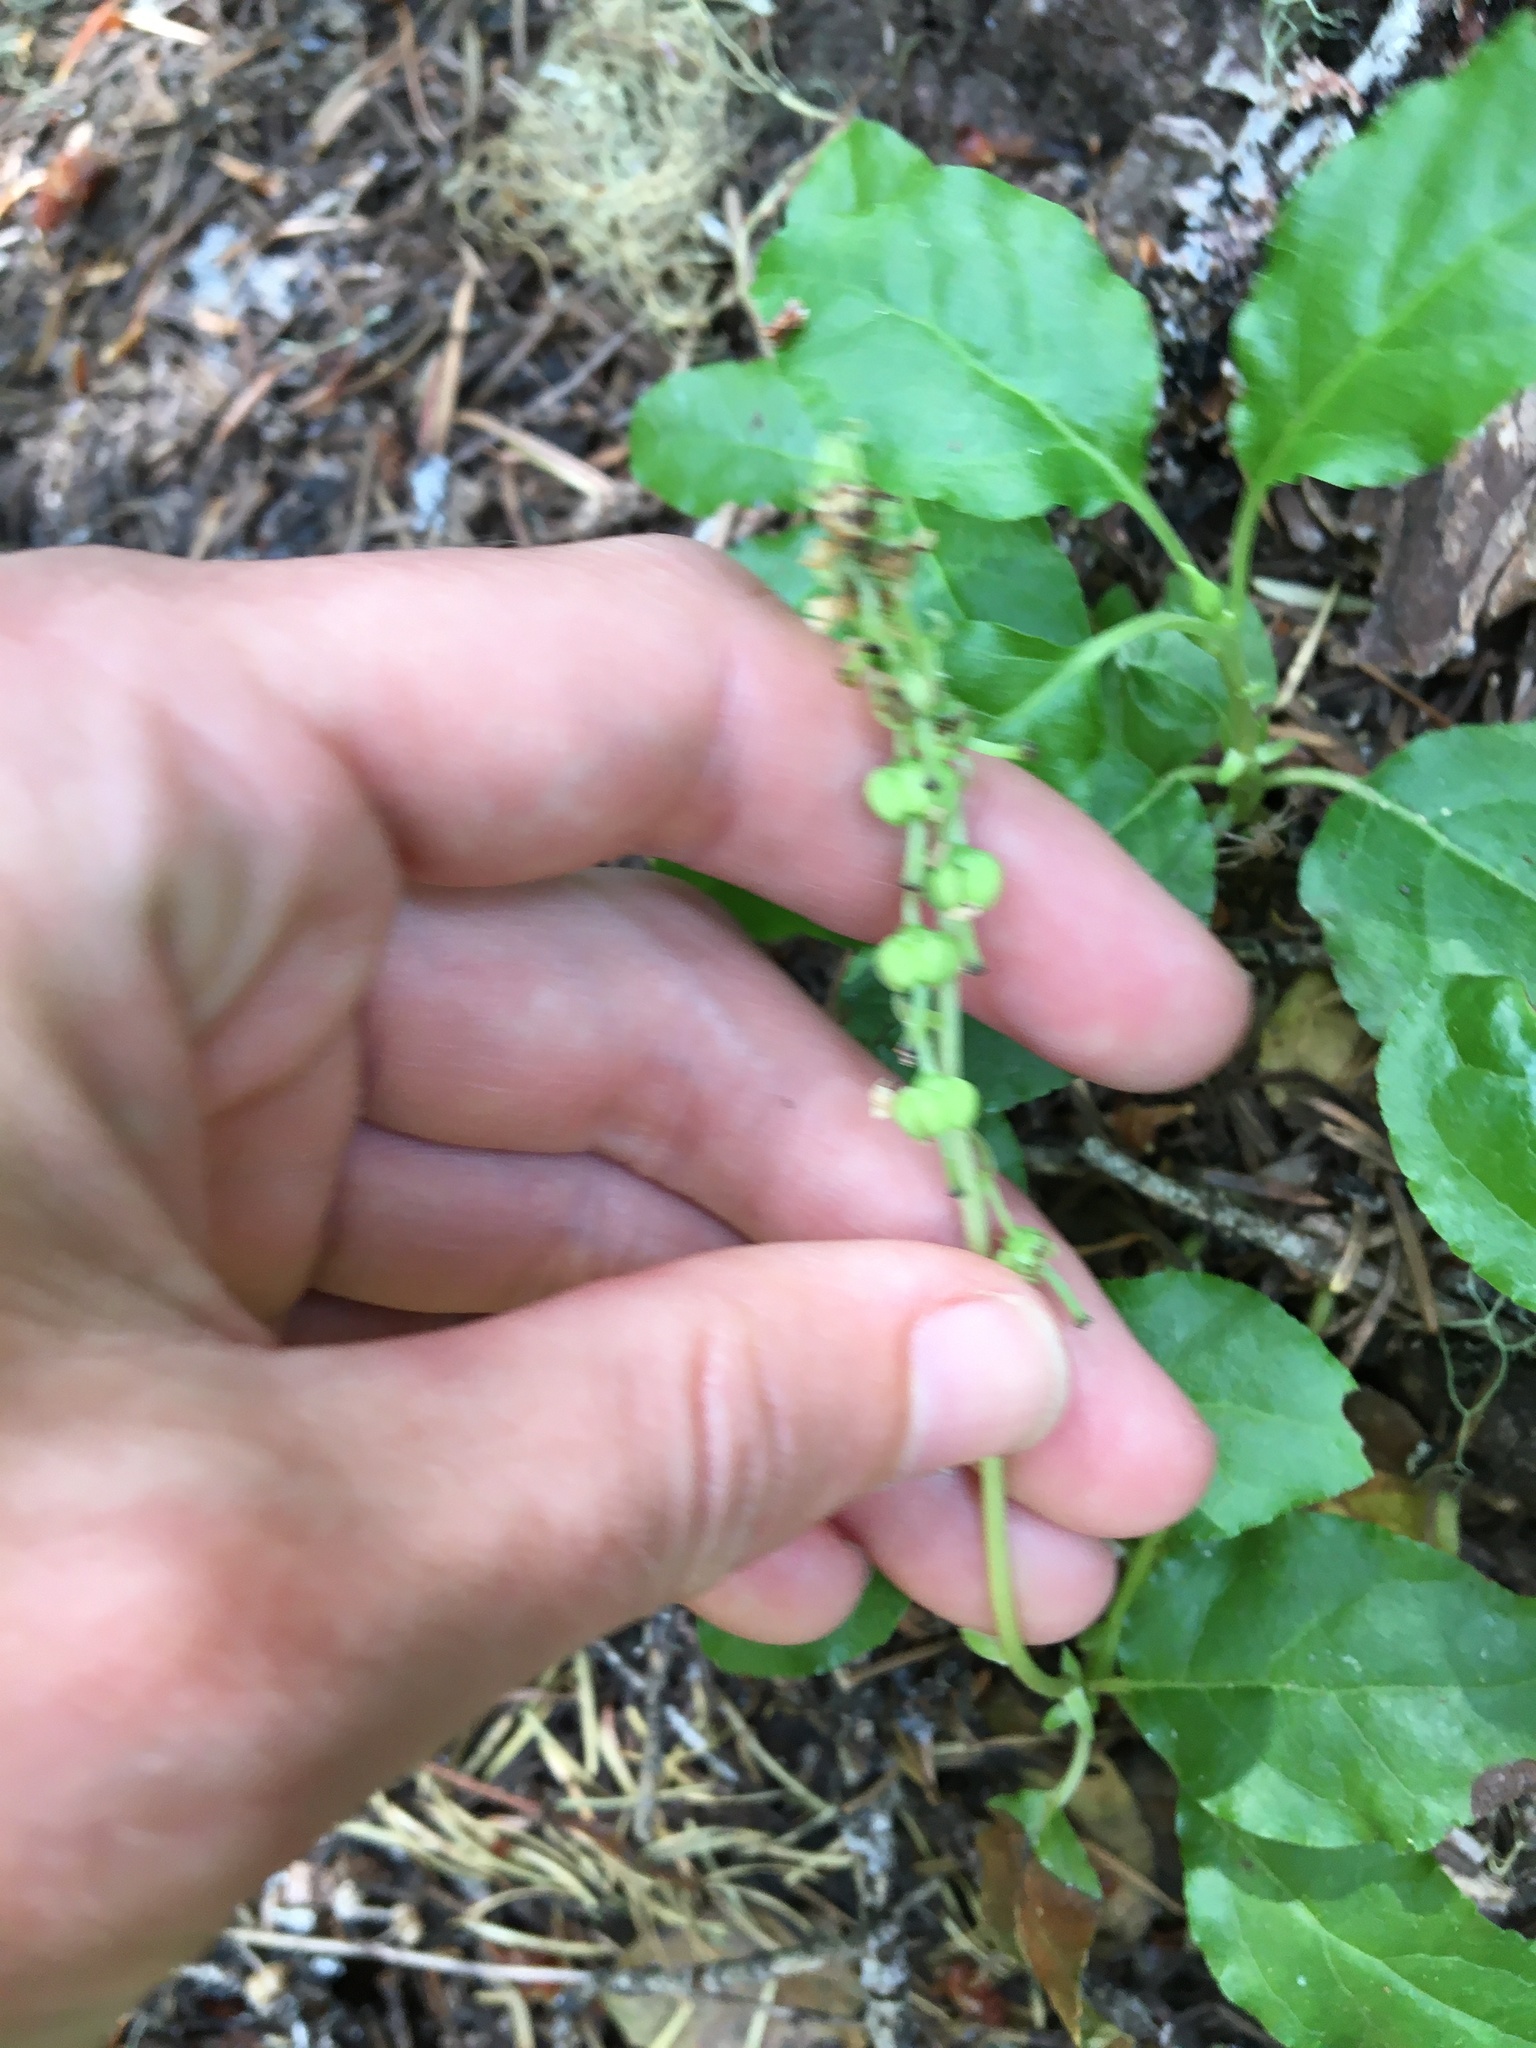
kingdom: Plantae
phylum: Tracheophyta
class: Magnoliopsida
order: Ericales
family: Ericaceae
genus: Orthilia
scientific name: Orthilia secunda
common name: One-sided orthilia
